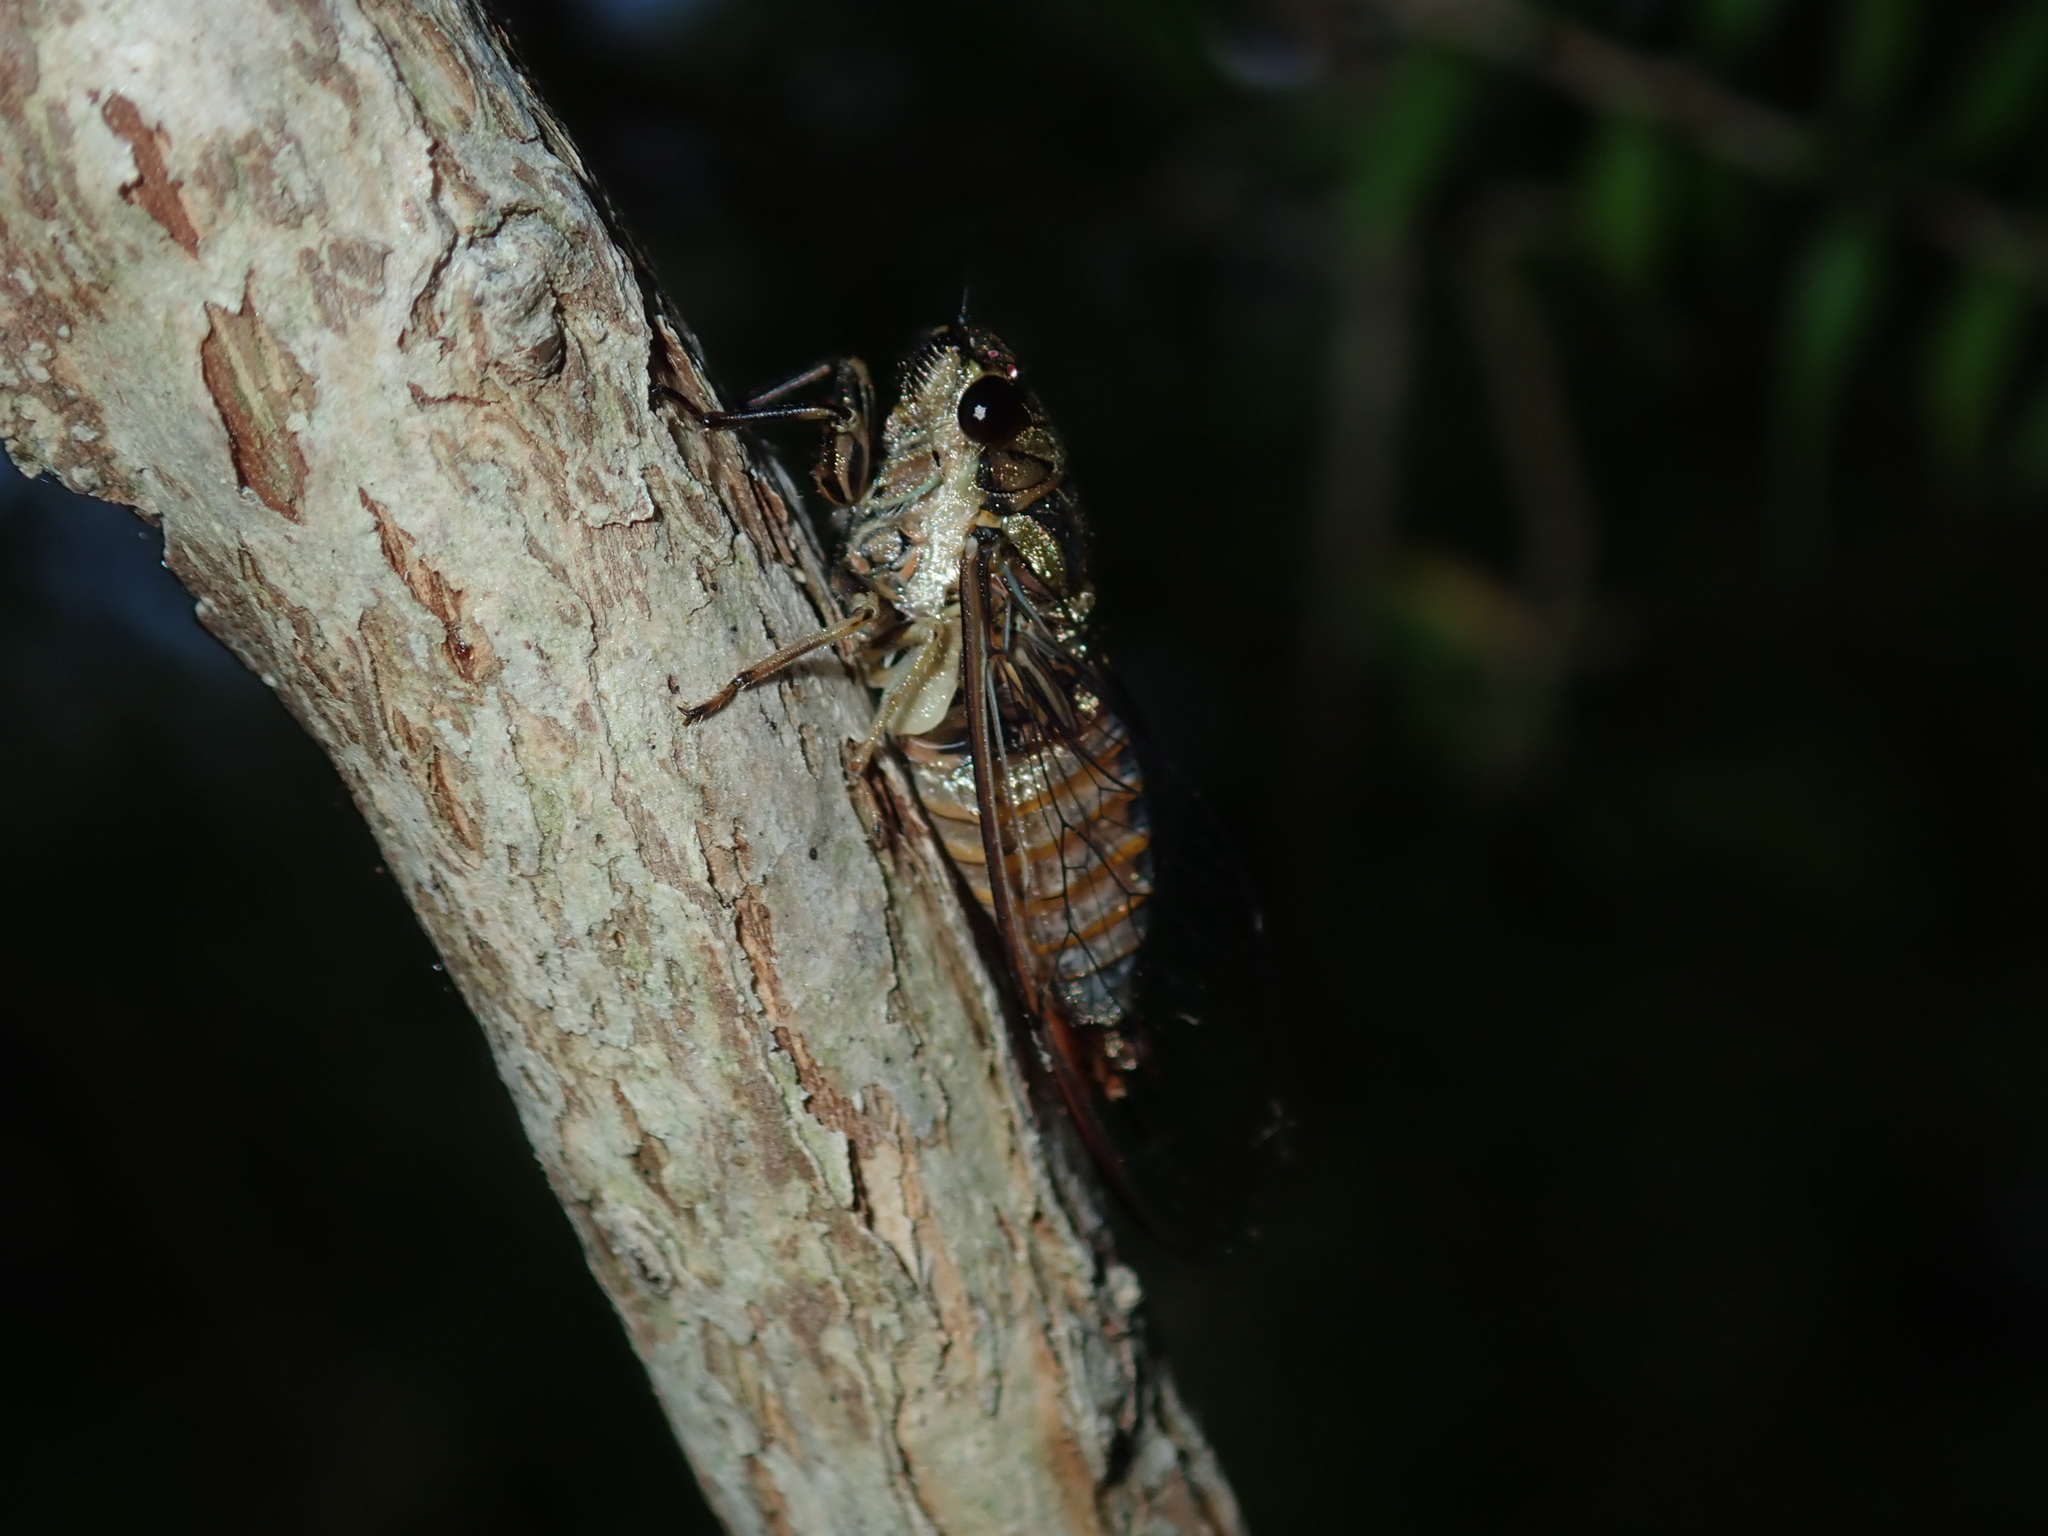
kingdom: Animalia
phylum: Arthropoda
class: Insecta
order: Hemiptera
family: Cicadidae
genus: Yoyetta
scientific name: Yoyetta celis
